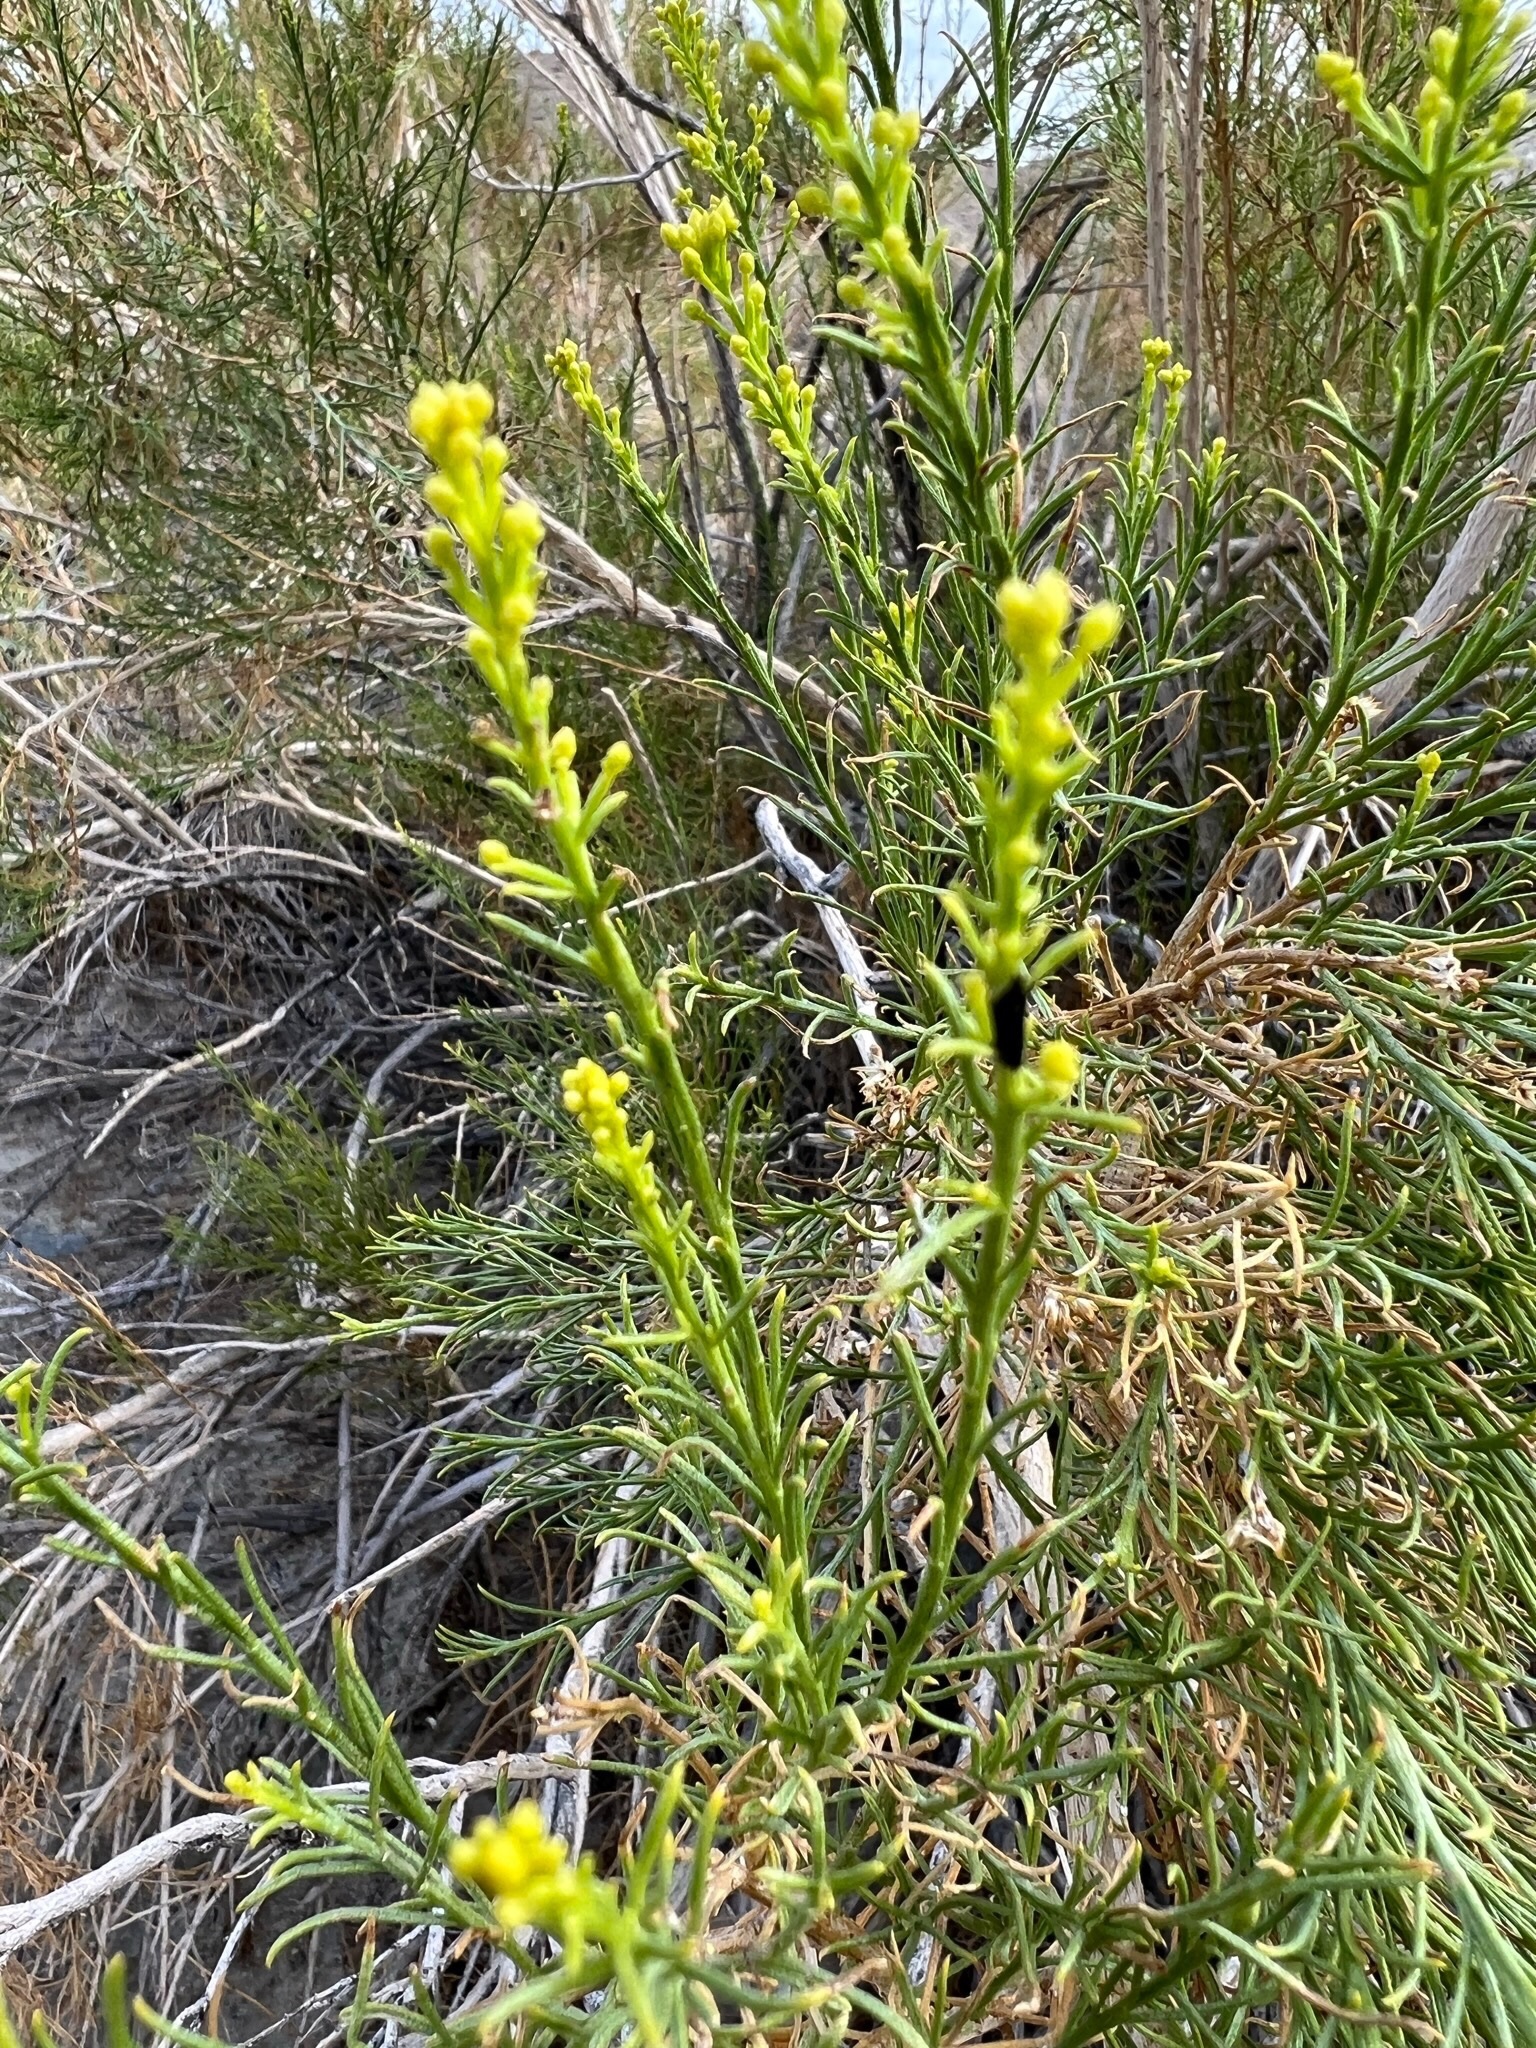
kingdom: Plantae
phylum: Tracheophyta
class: Magnoliopsida
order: Asterales
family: Asteraceae
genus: Ericameria
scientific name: Ericameria paniculata
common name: Punctate rabbitbrush
